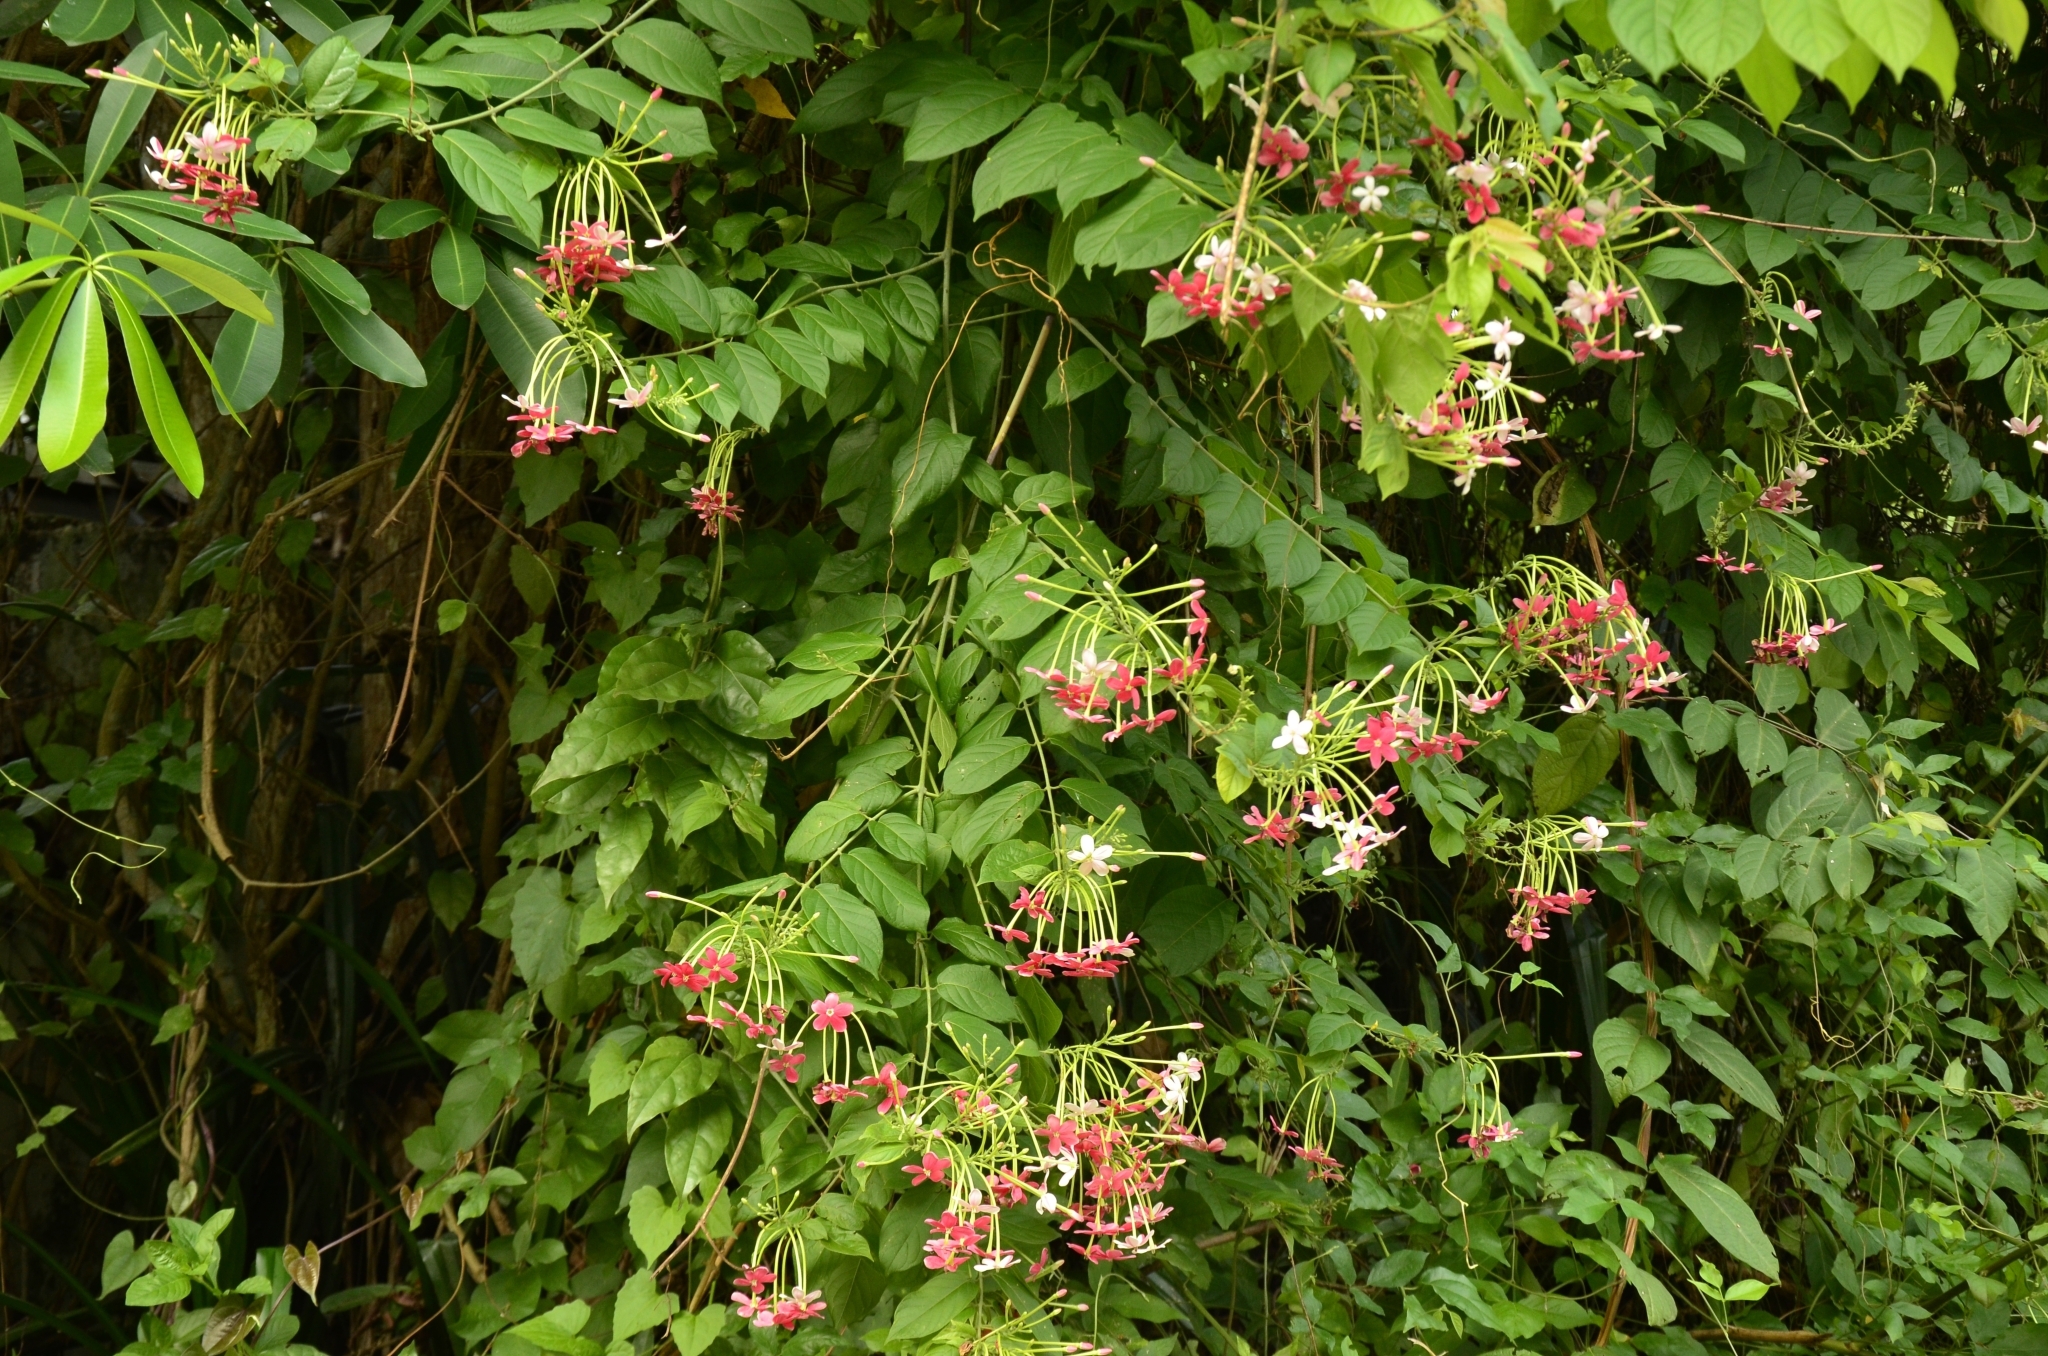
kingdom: Plantae
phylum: Tracheophyta
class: Magnoliopsida
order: Myrtales
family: Combretaceae
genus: Combretum
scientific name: Combretum indicum
